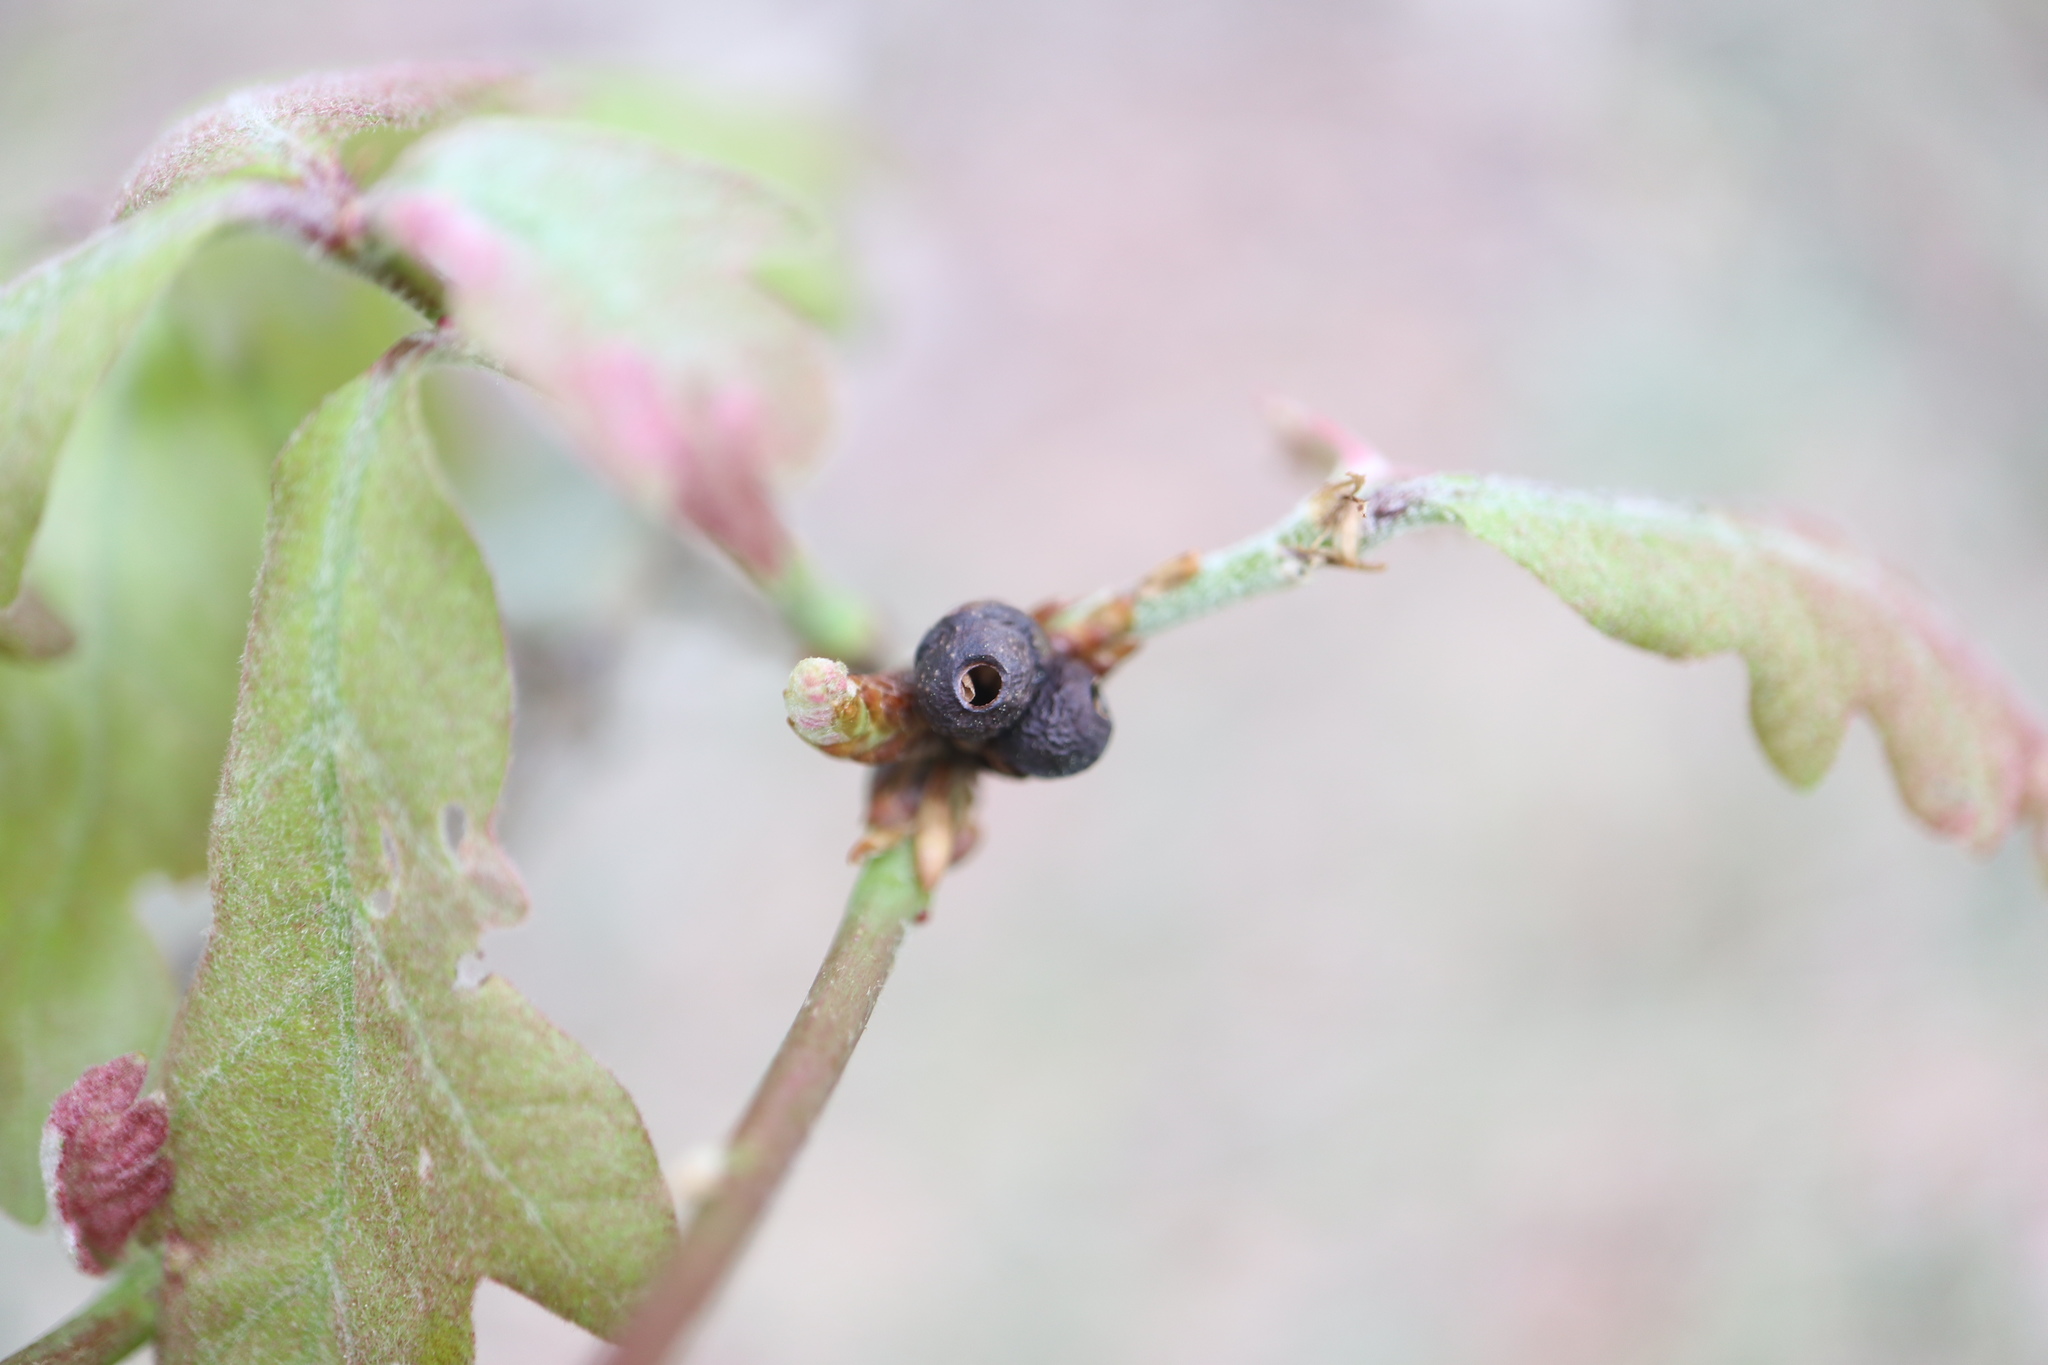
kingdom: Animalia
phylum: Arthropoda
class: Insecta
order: Hymenoptera
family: Cynipidae
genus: Neuroterus
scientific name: Neuroterus
